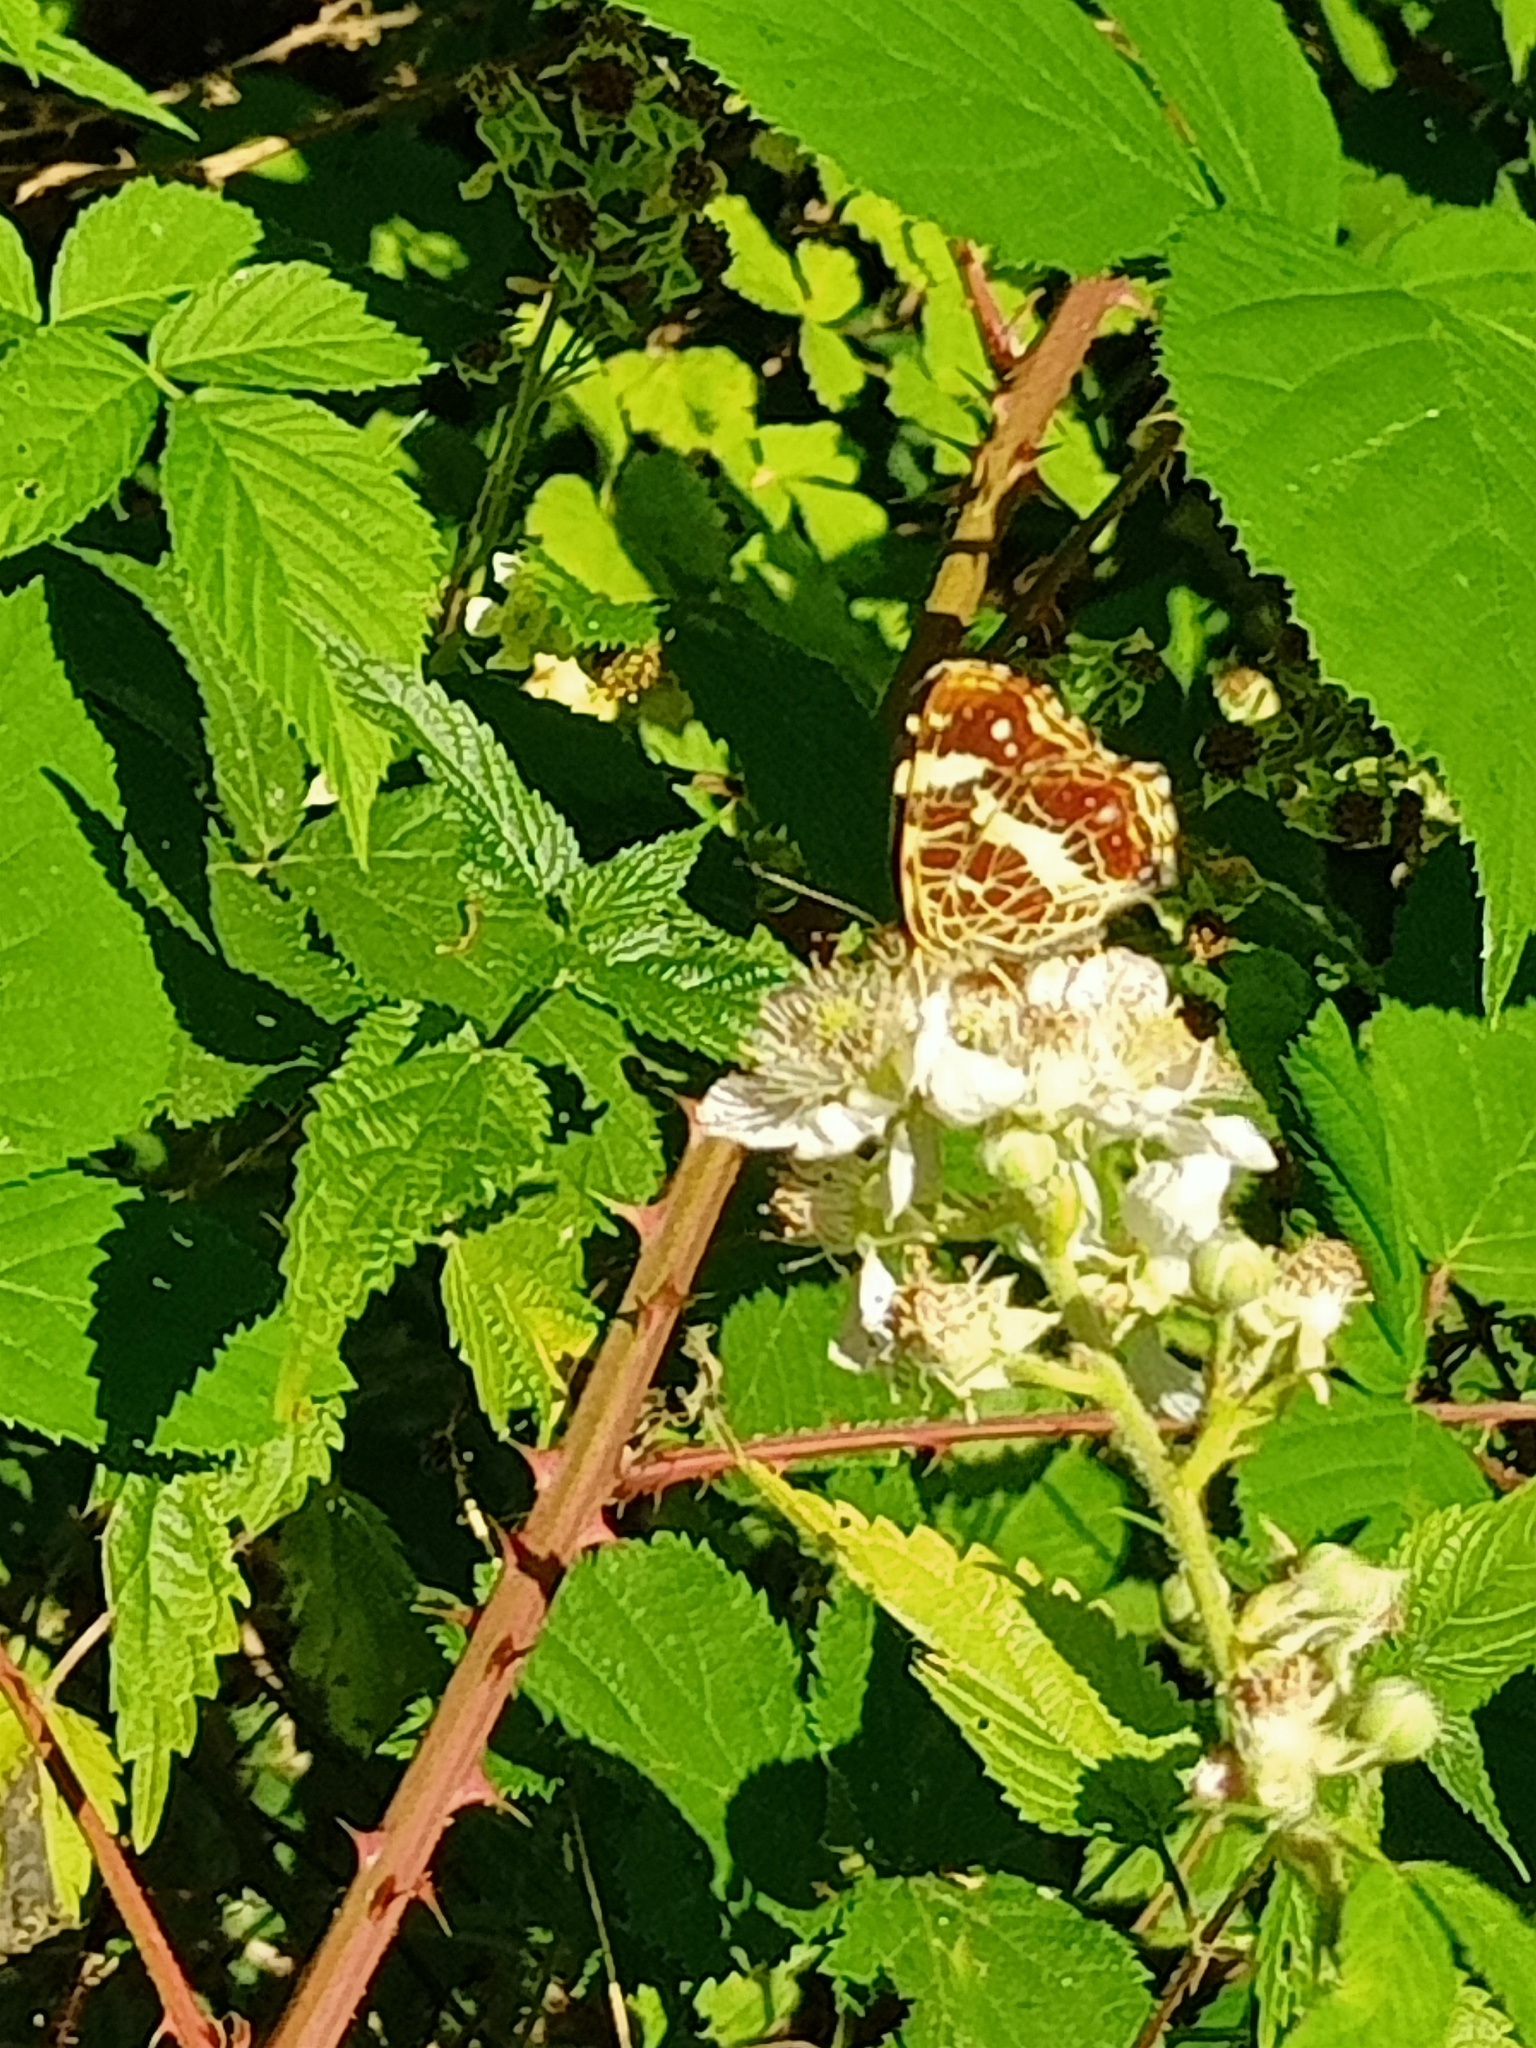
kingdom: Animalia
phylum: Arthropoda
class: Insecta
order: Lepidoptera
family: Nymphalidae
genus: Araschnia
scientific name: Araschnia levana
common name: Map butterfly
